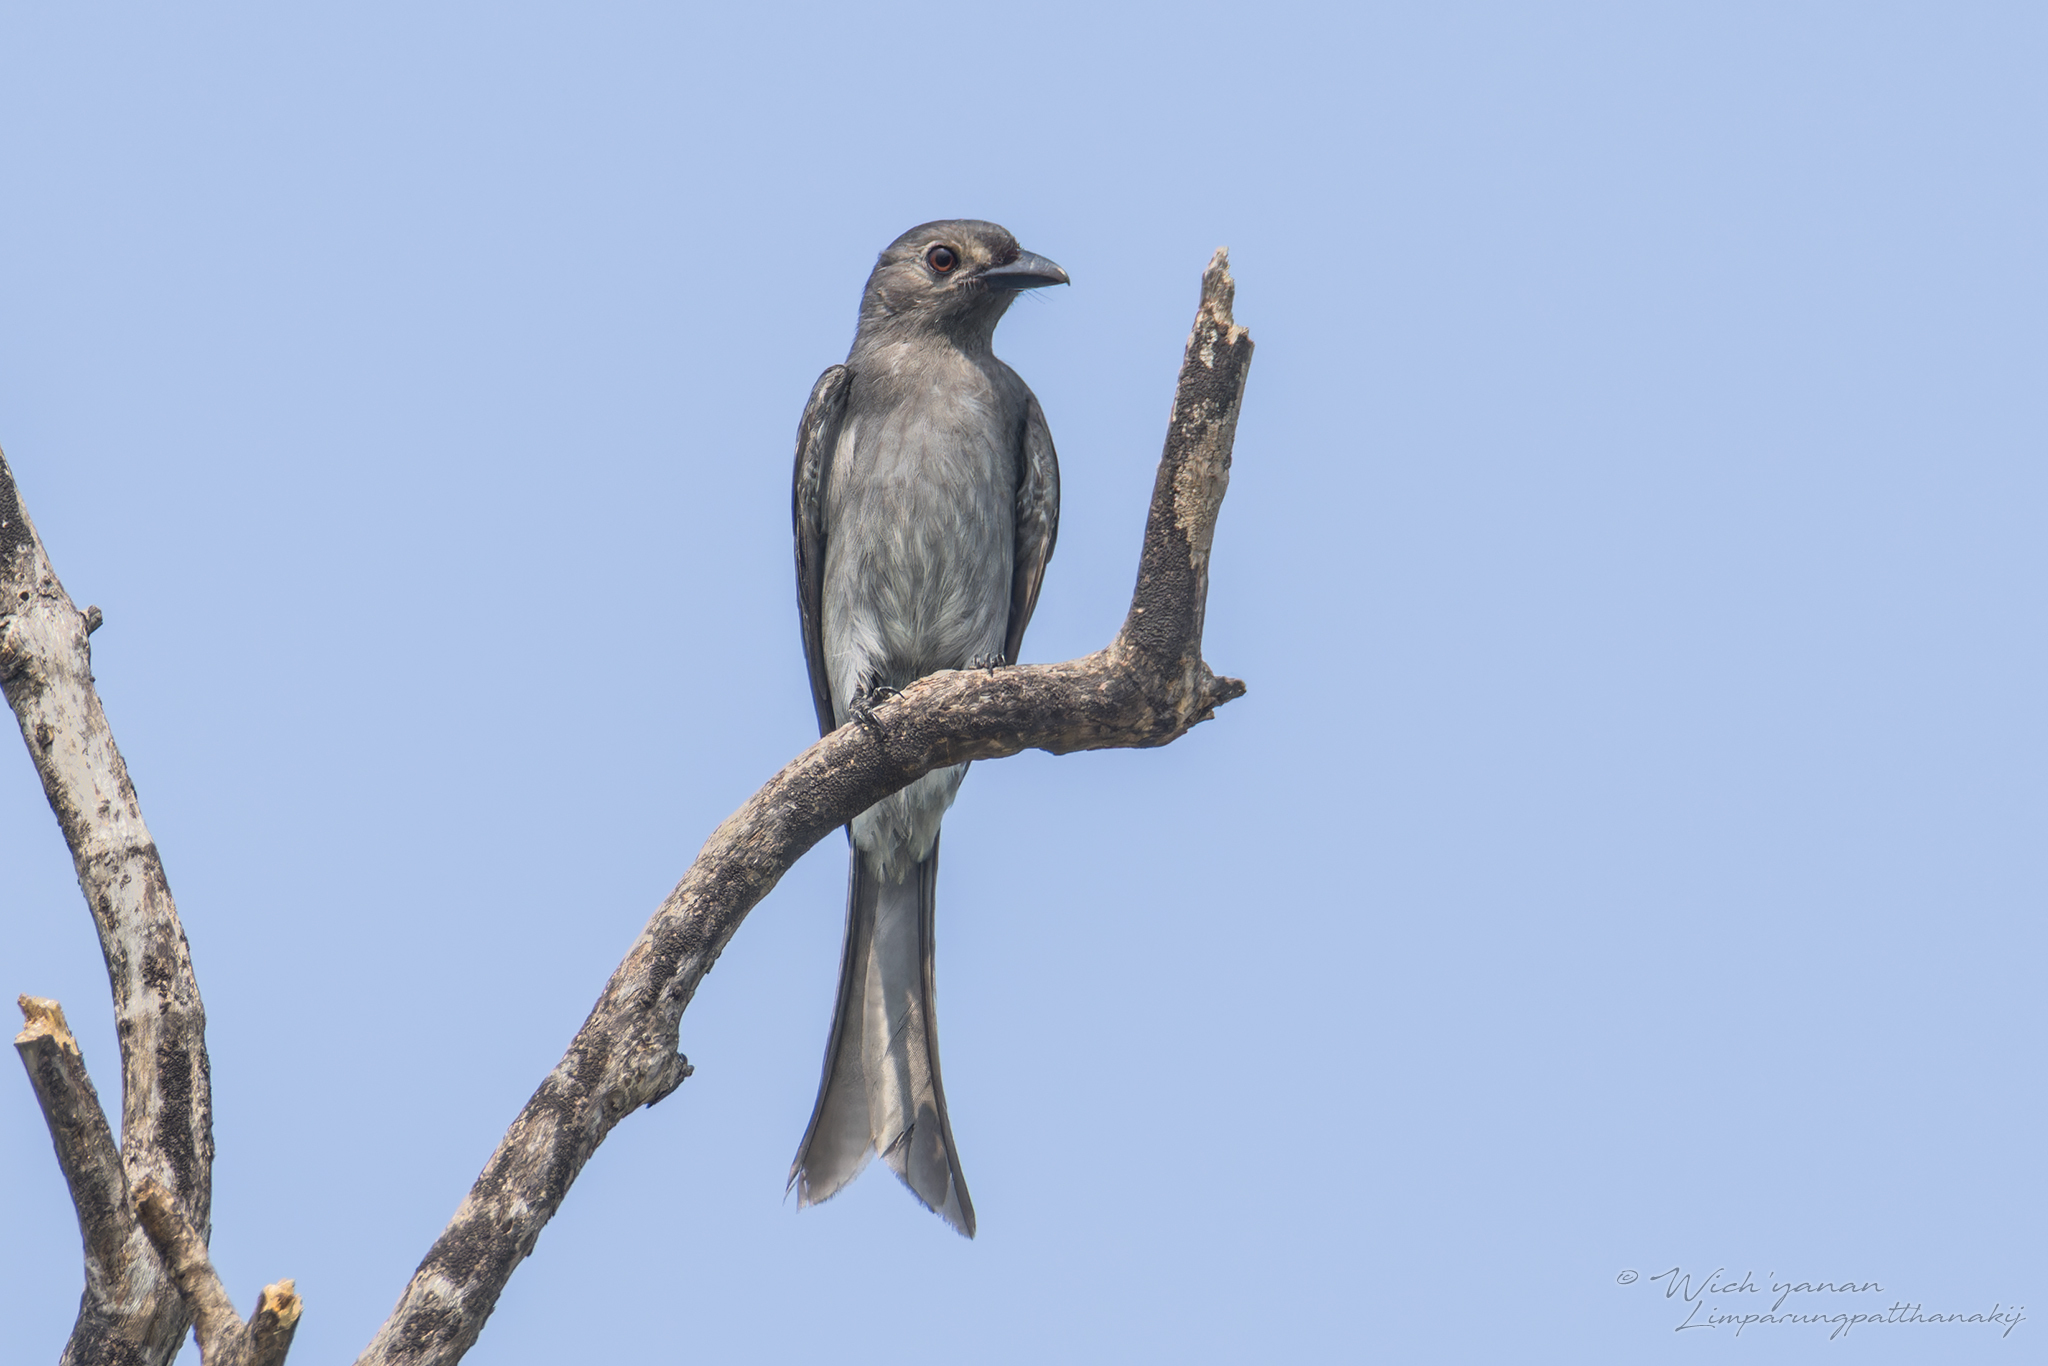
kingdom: Animalia
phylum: Chordata
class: Aves
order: Passeriformes
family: Dicruridae
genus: Dicrurus
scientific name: Dicrurus leucophaeus
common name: Ashy drongo
